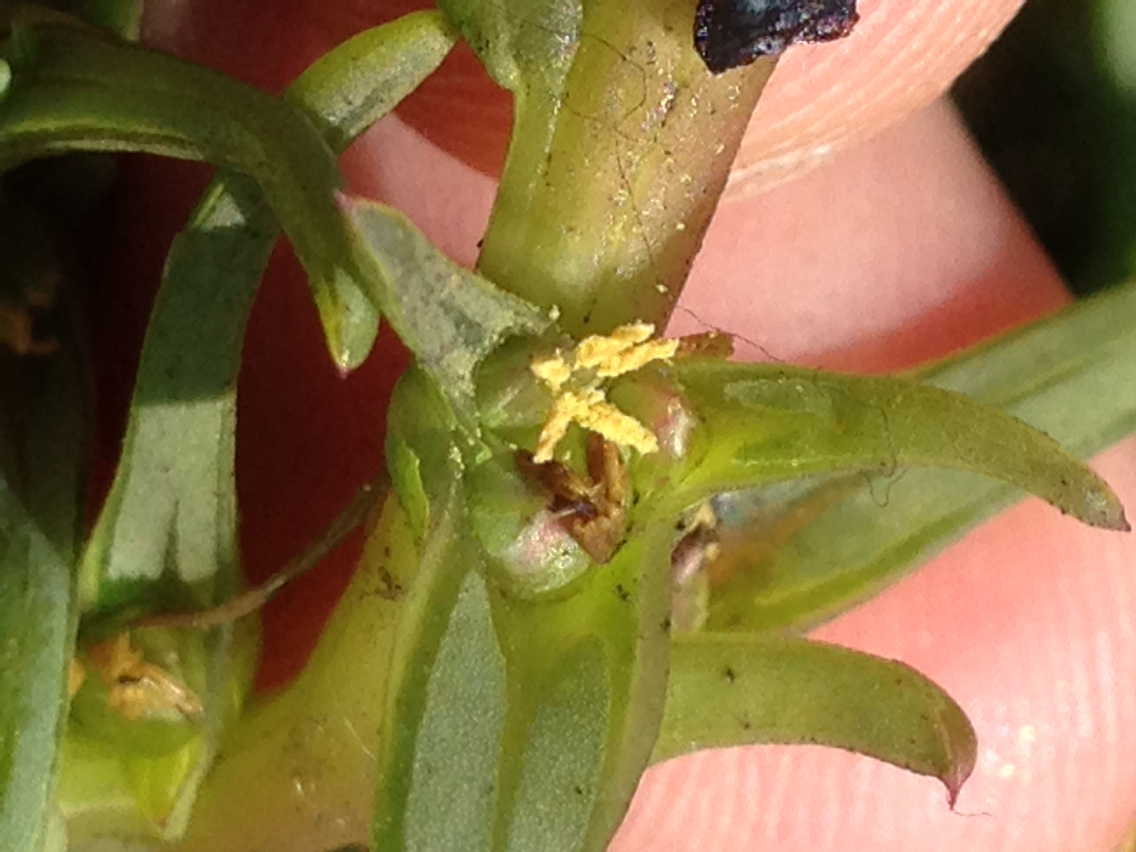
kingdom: Plantae
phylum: Tracheophyta
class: Magnoliopsida
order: Caryophyllales
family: Amaranthaceae
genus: Salsola
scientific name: Salsola soda
